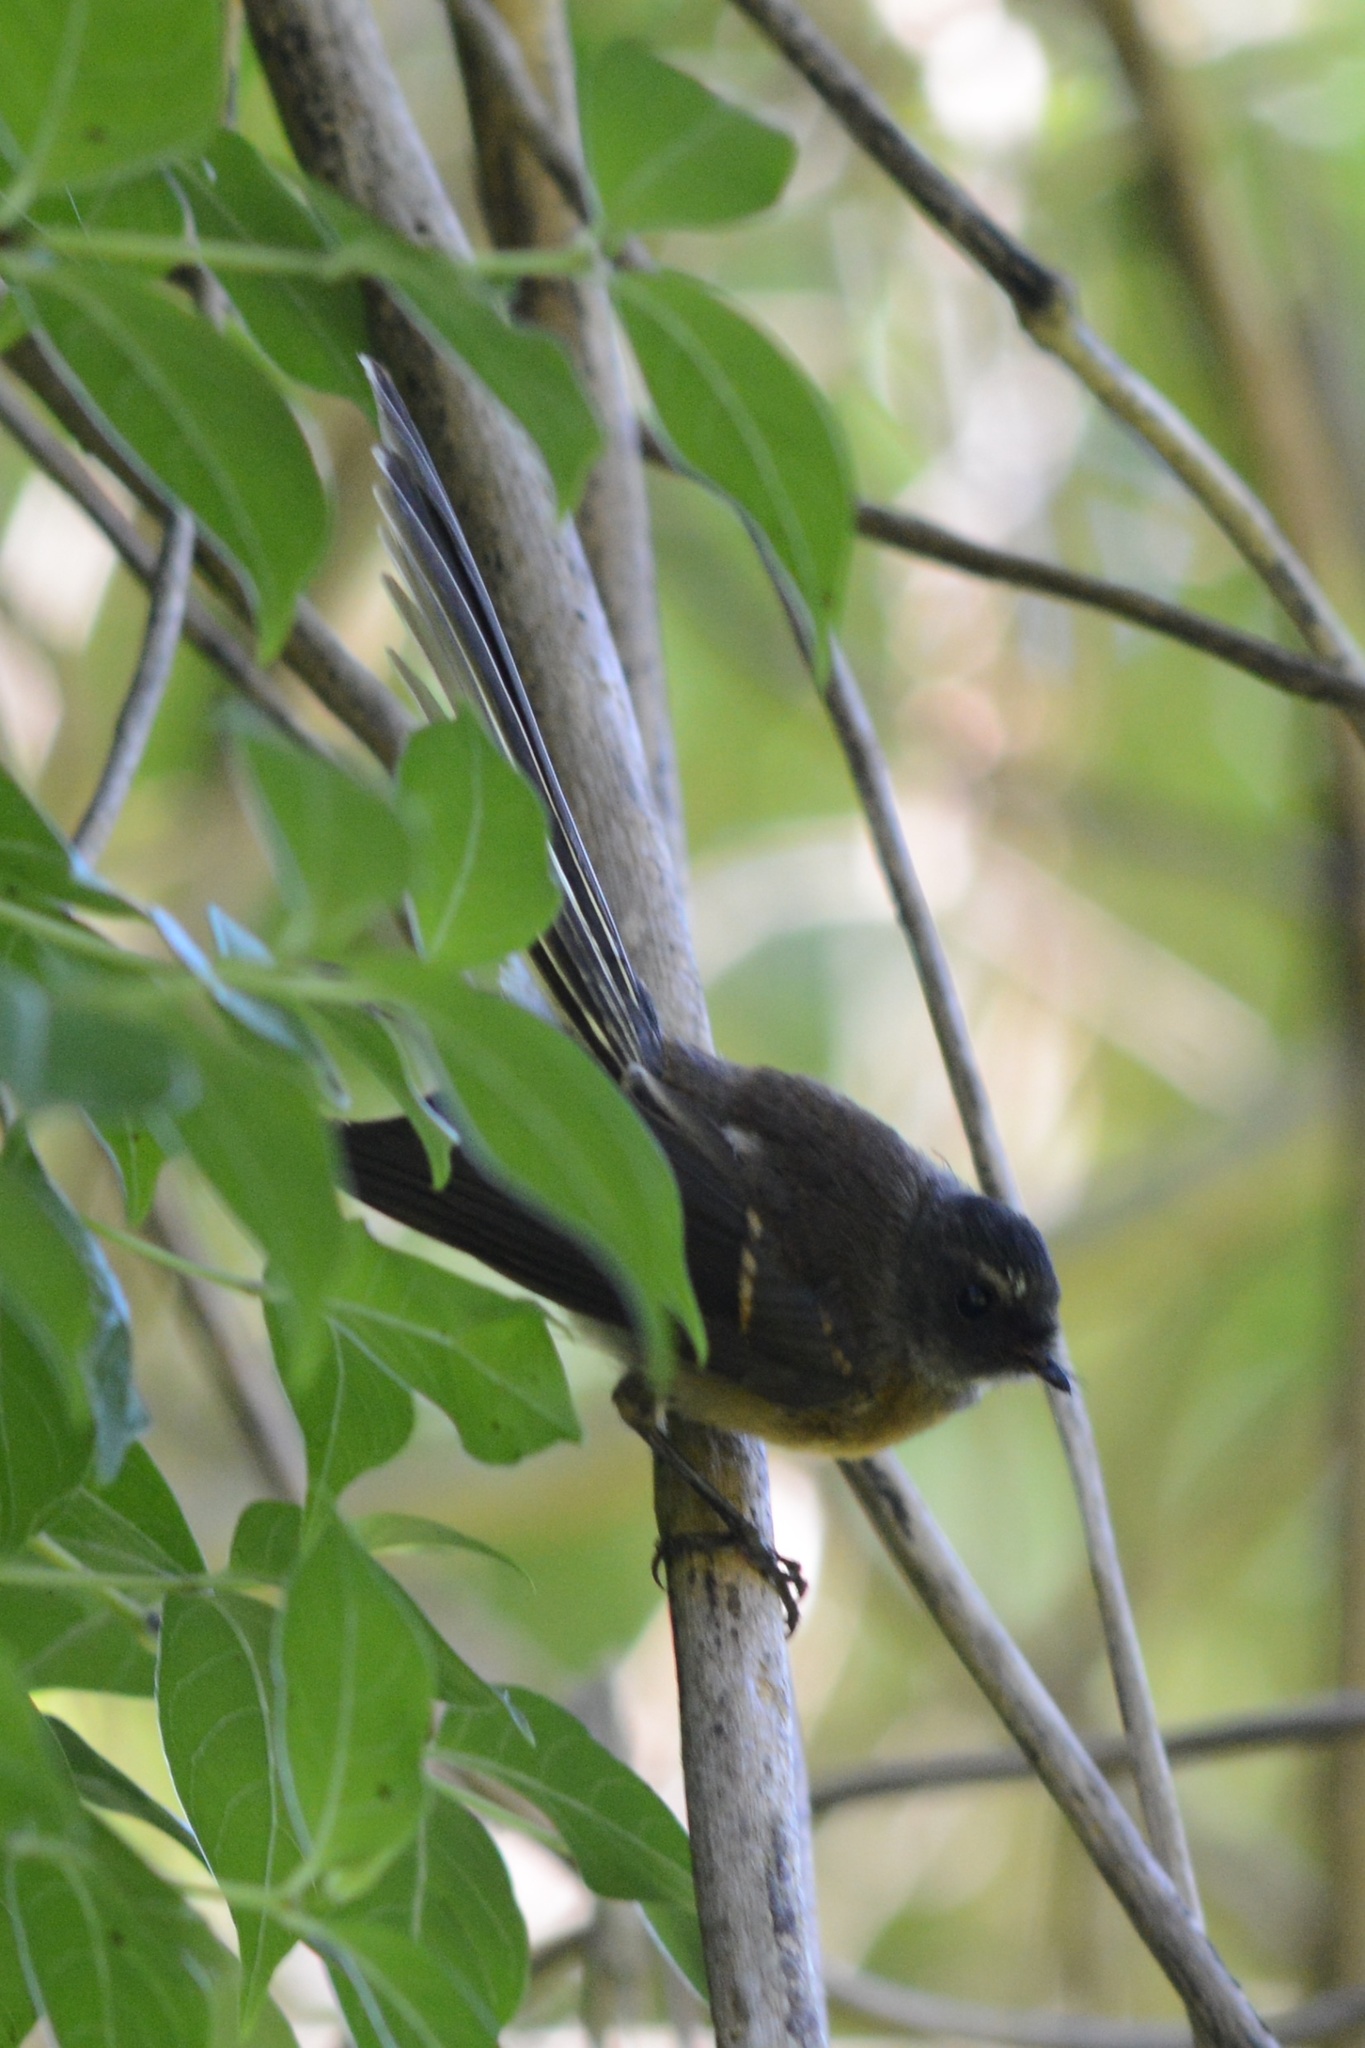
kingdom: Animalia
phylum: Chordata
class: Aves
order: Passeriformes
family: Rhipiduridae
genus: Rhipidura
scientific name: Rhipidura fuliginosa
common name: New zealand fantail
